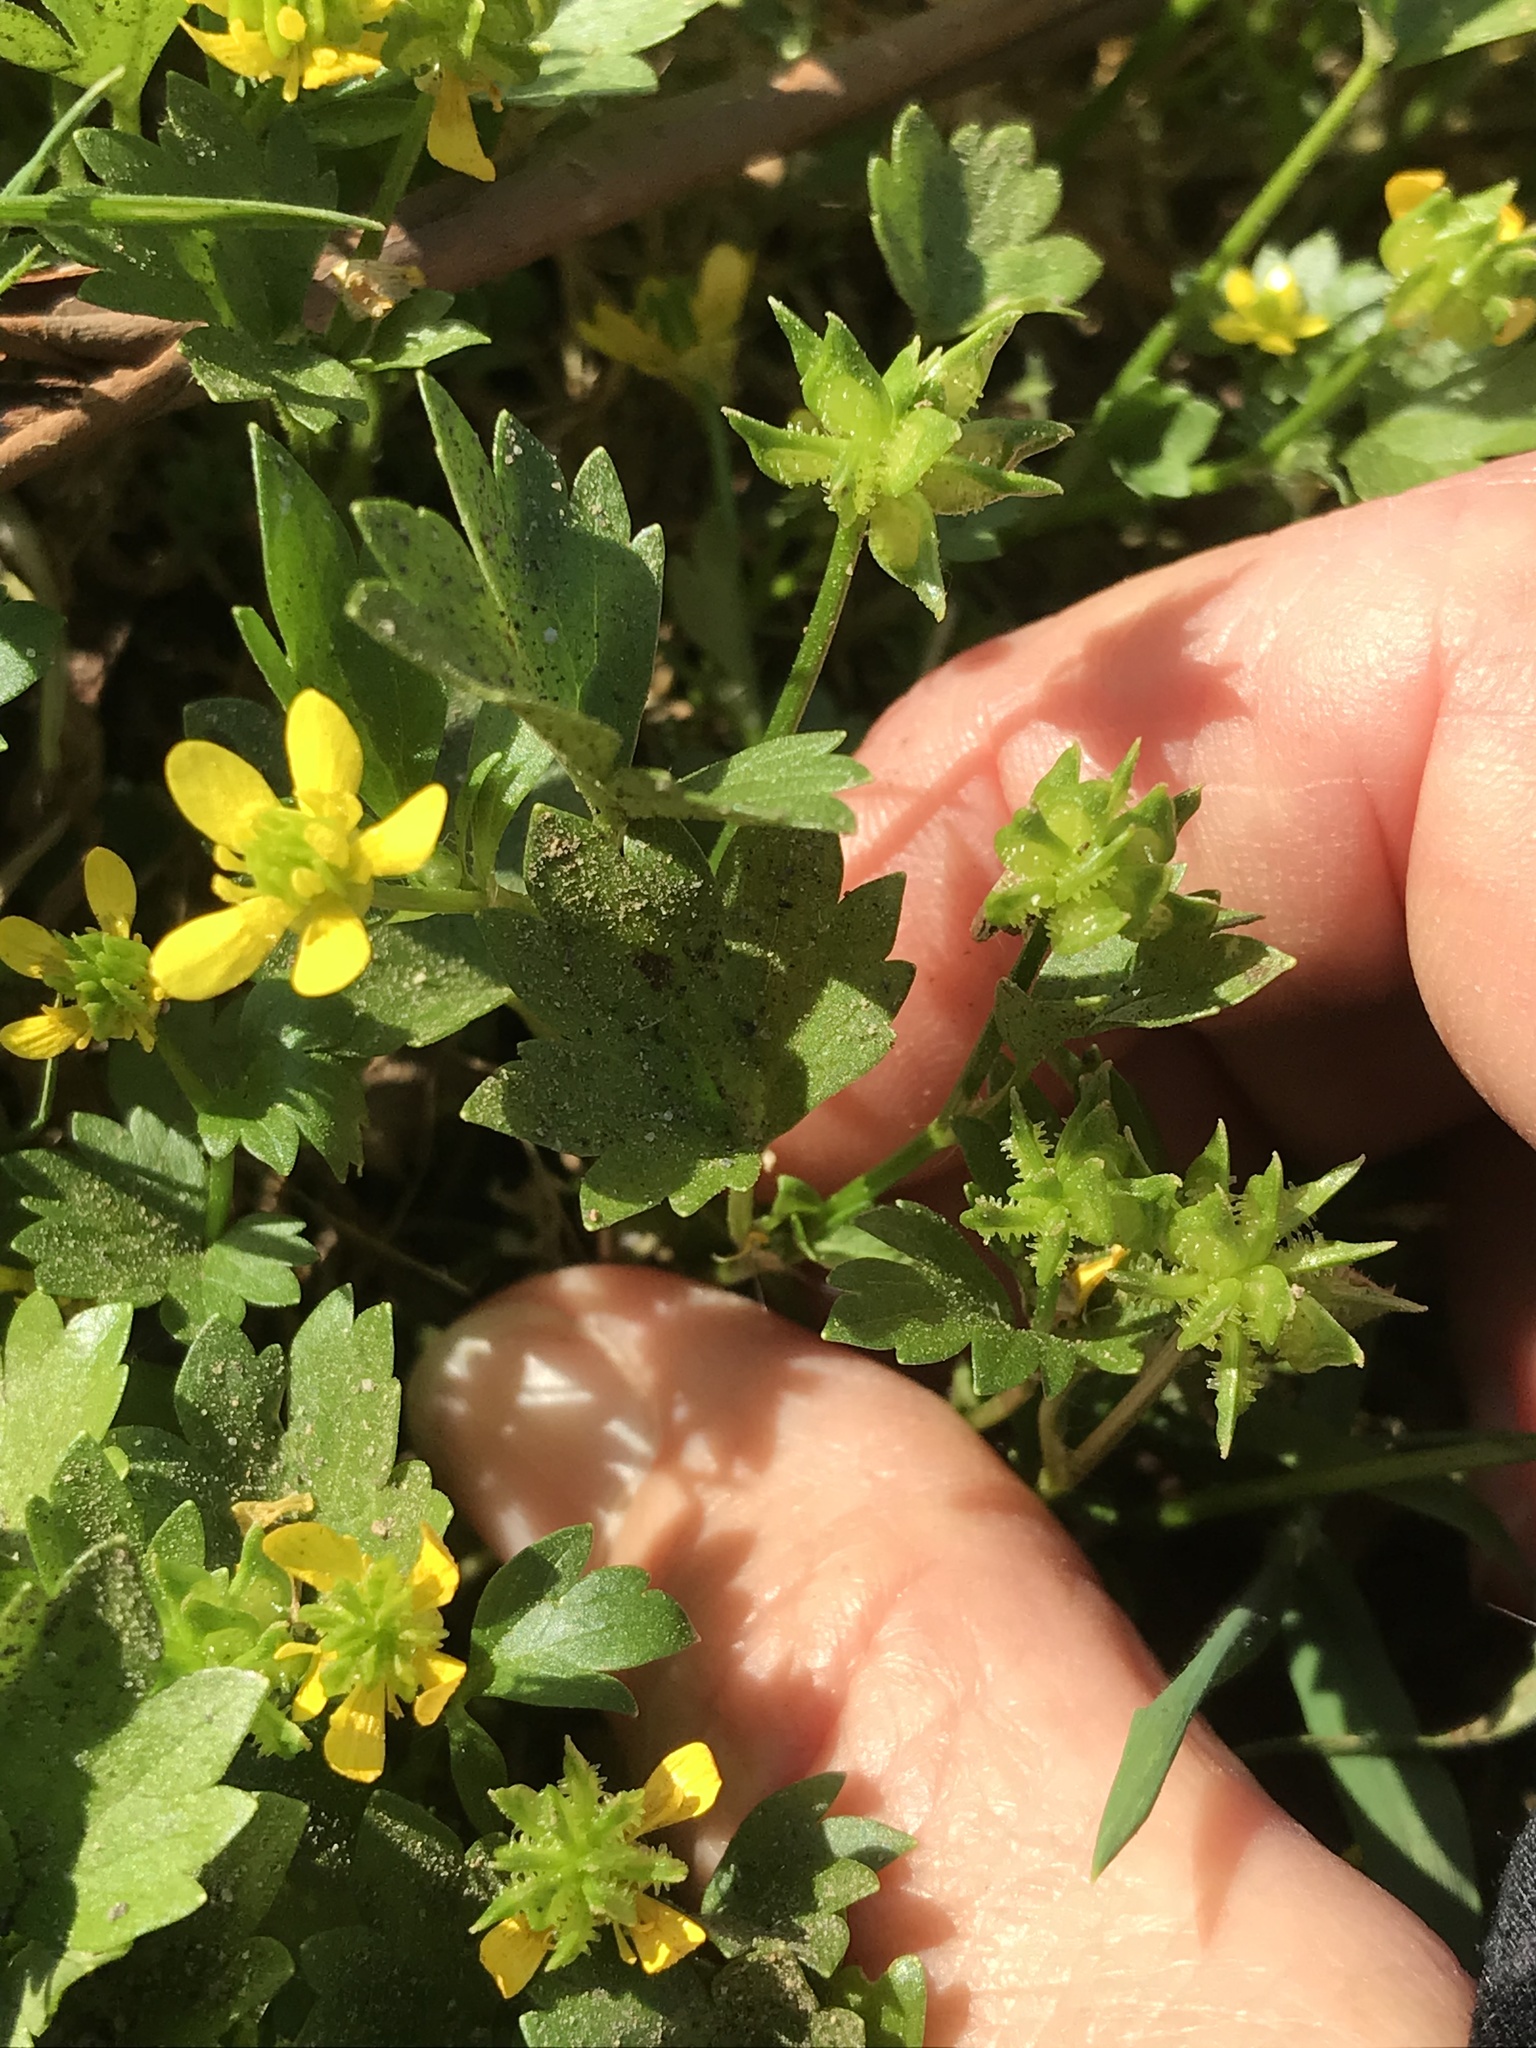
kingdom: Plantae
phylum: Tracheophyta
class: Magnoliopsida
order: Ranunculales
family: Ranunculaceae
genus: Ranunculus
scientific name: Ranunculus muricatus
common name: Rough-fruited buttercup
